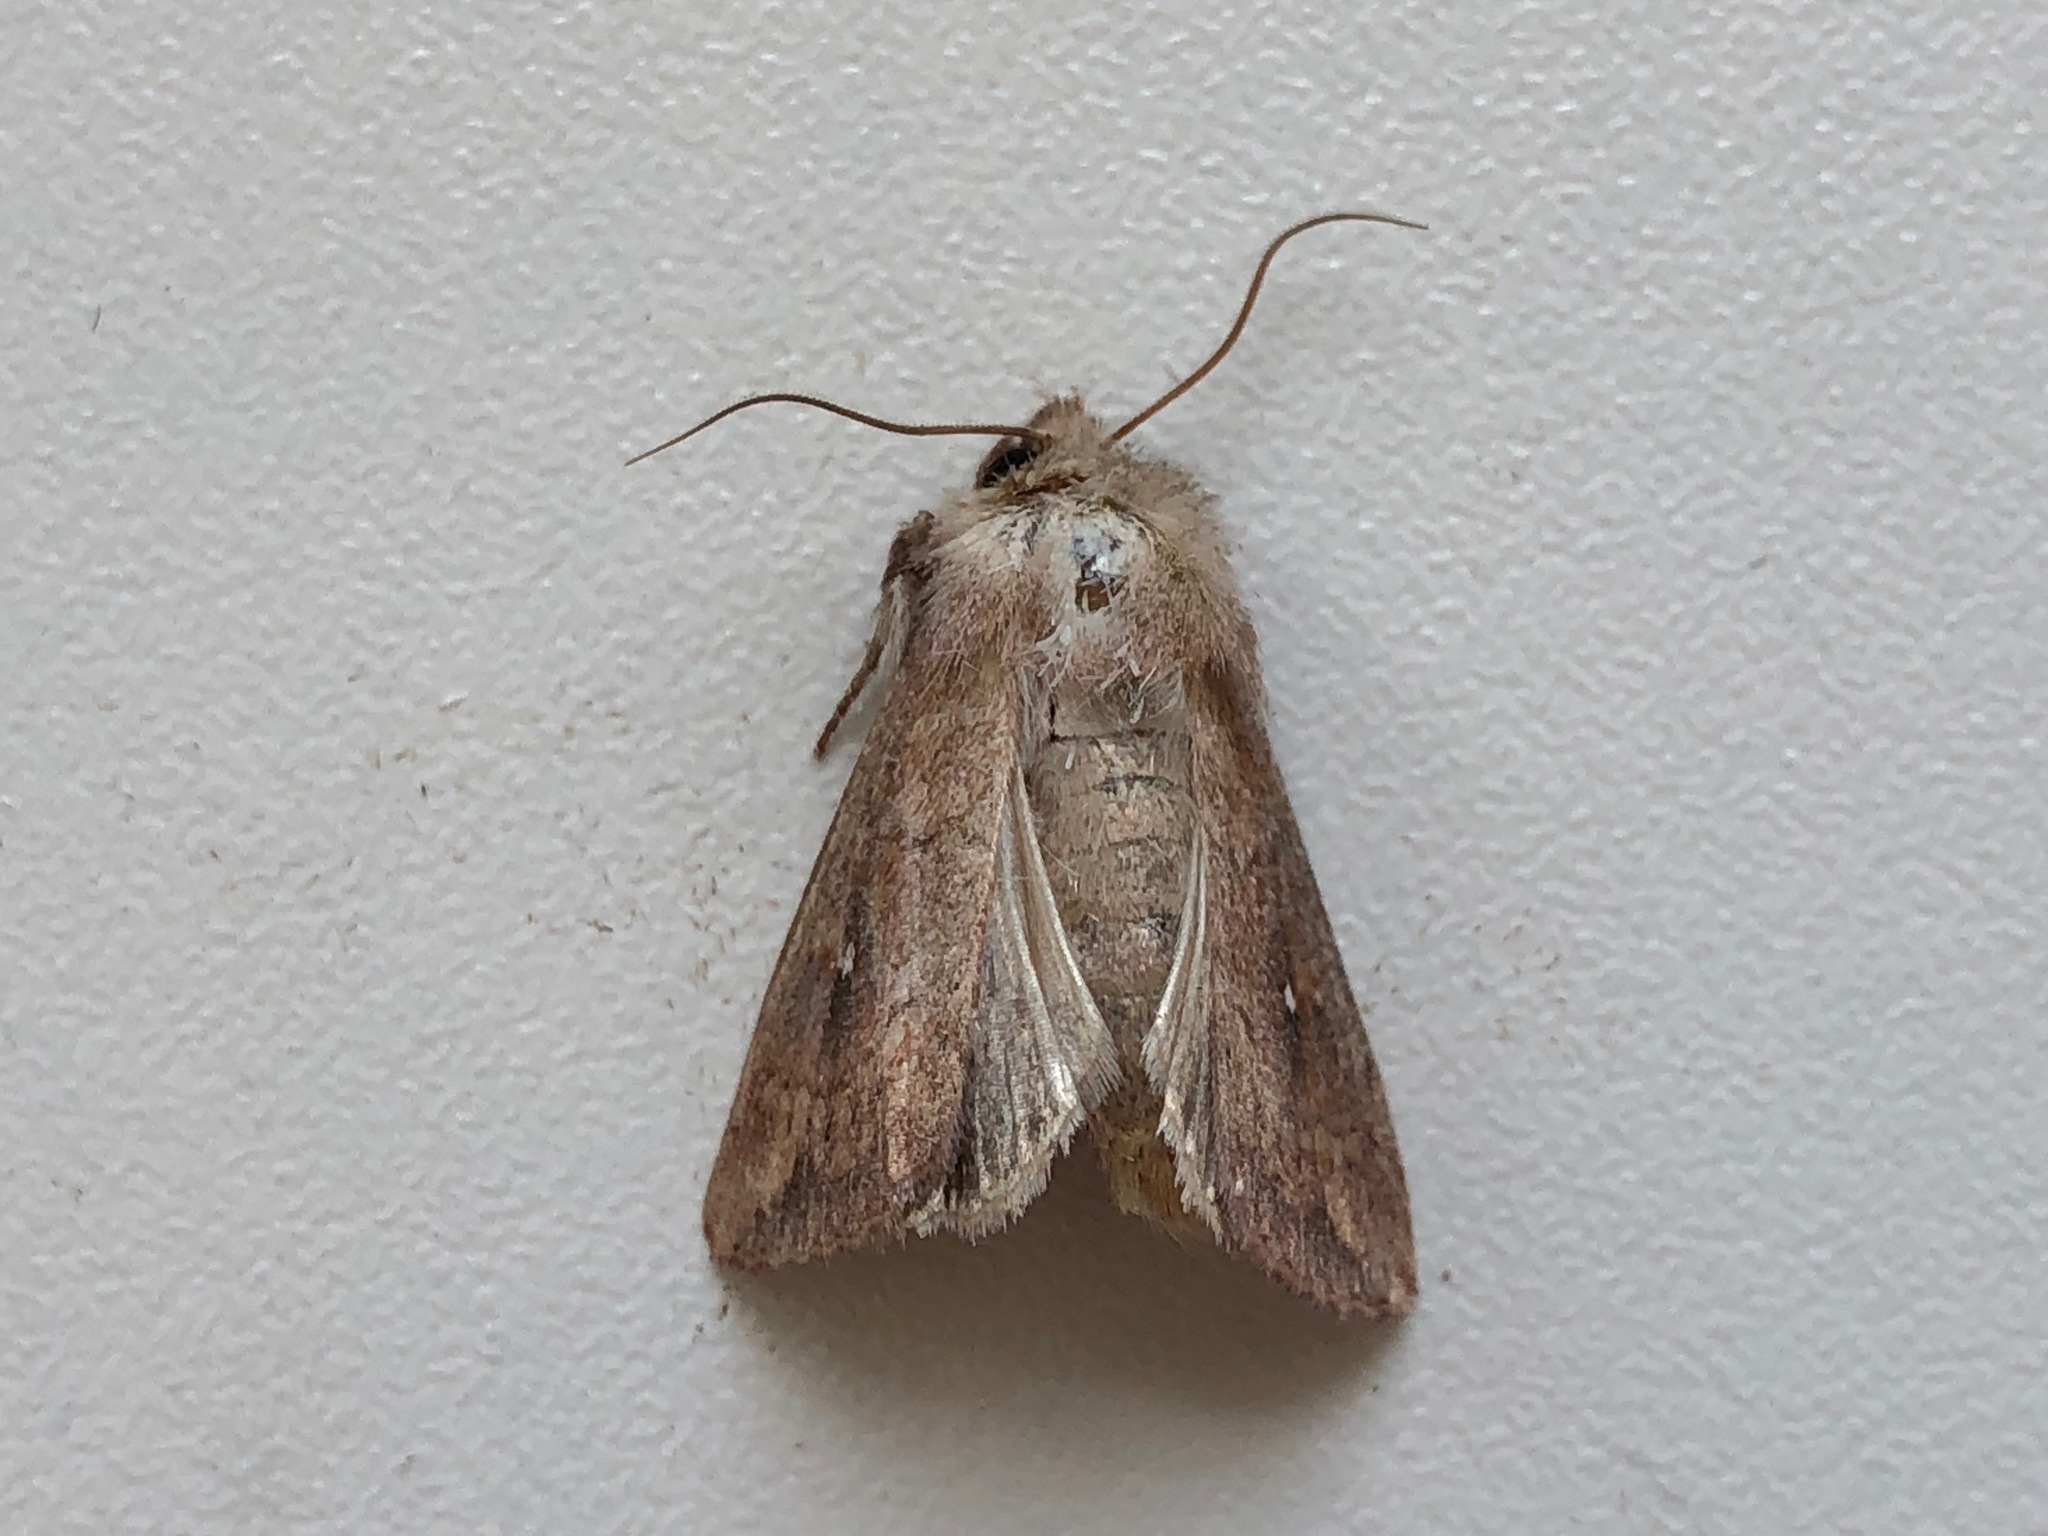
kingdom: Animalia
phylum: Arthropoda
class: Insecta
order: Lepidoptera
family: Noctuidae
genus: Mythimna
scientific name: Mythimna albipuncta
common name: White-point
